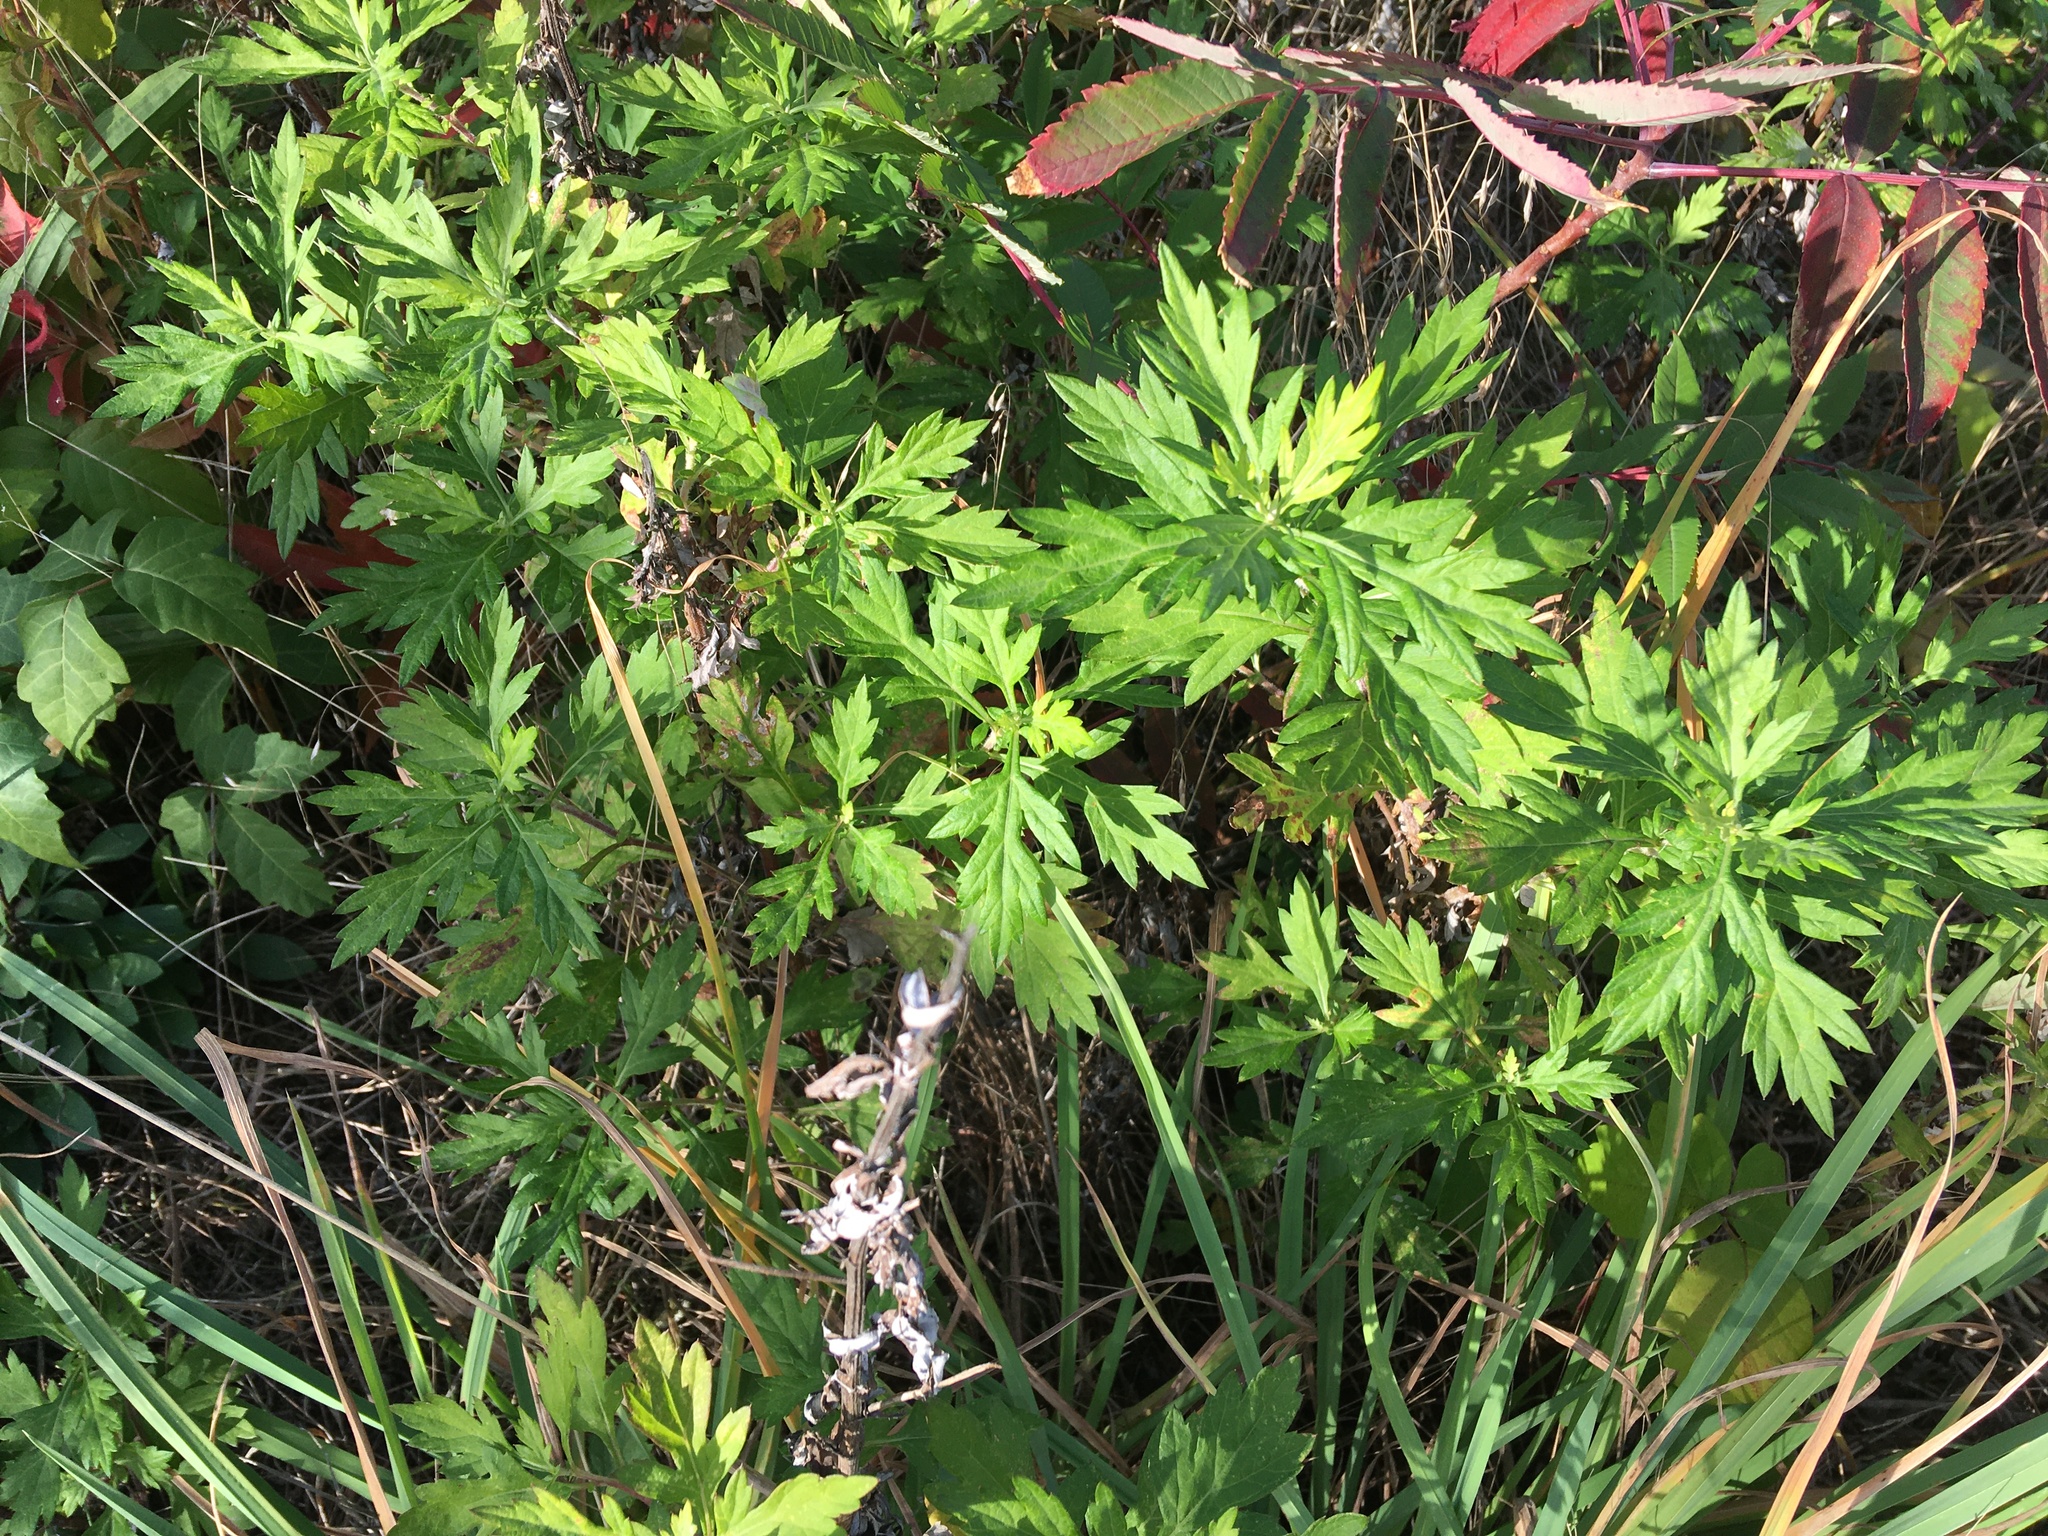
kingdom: Plantae
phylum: Tracheophyta
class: Magnoliopsida
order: Asterales
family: Asteraceae
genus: Artemisia
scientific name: Artemisia vulgaris
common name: Mugwort
